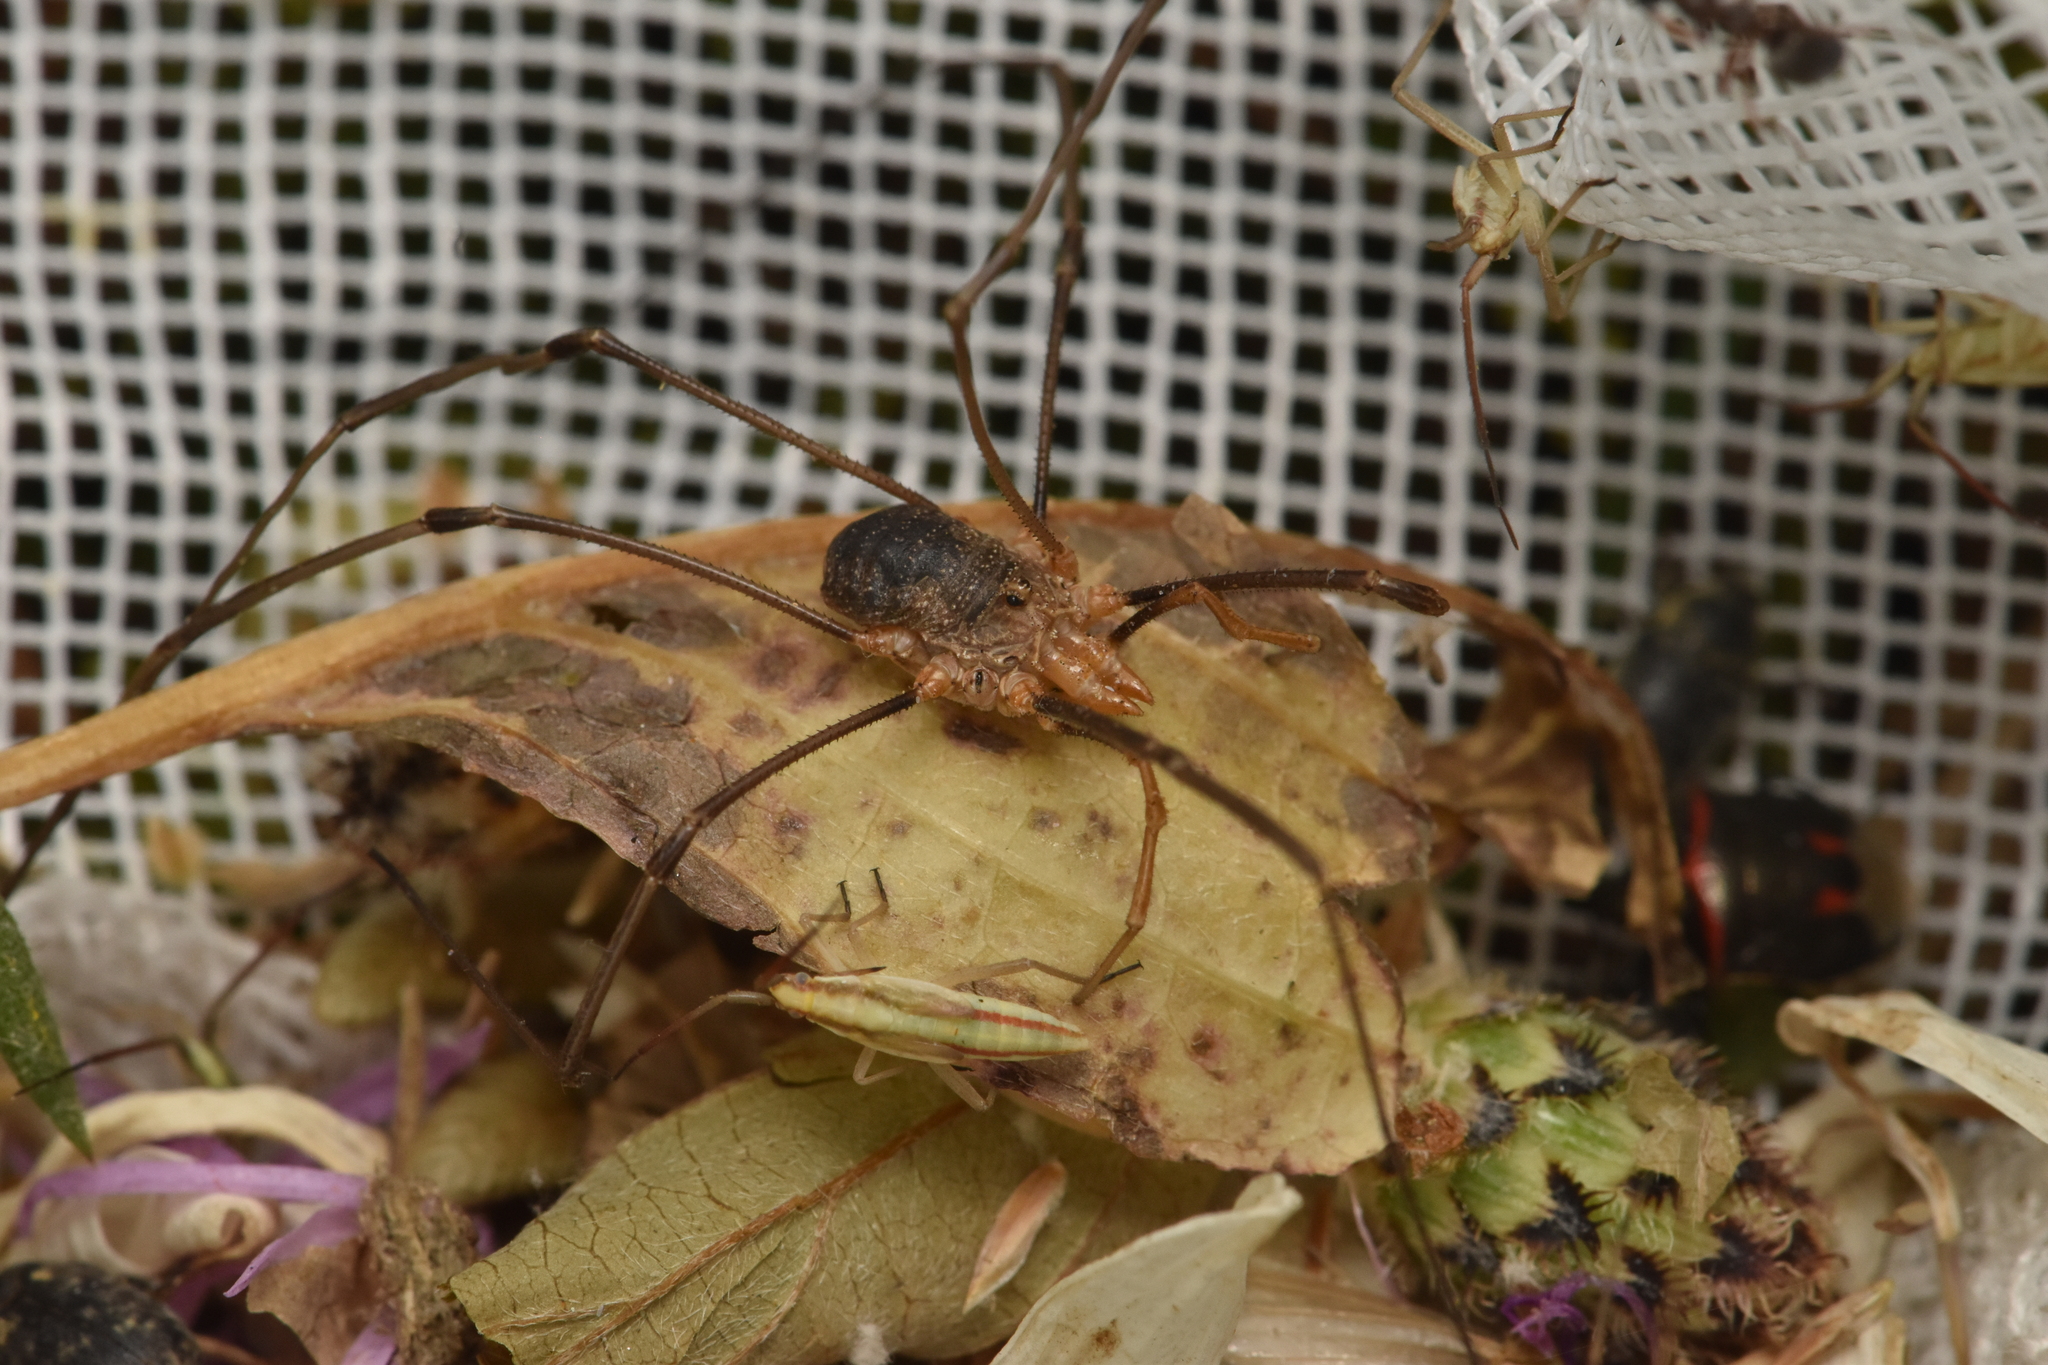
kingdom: Animalia
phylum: Arthropoda
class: Arachnida
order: Opiliones
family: Phalangiidae
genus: Phalangium
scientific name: Phalangium opilio
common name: Daddy longleg
